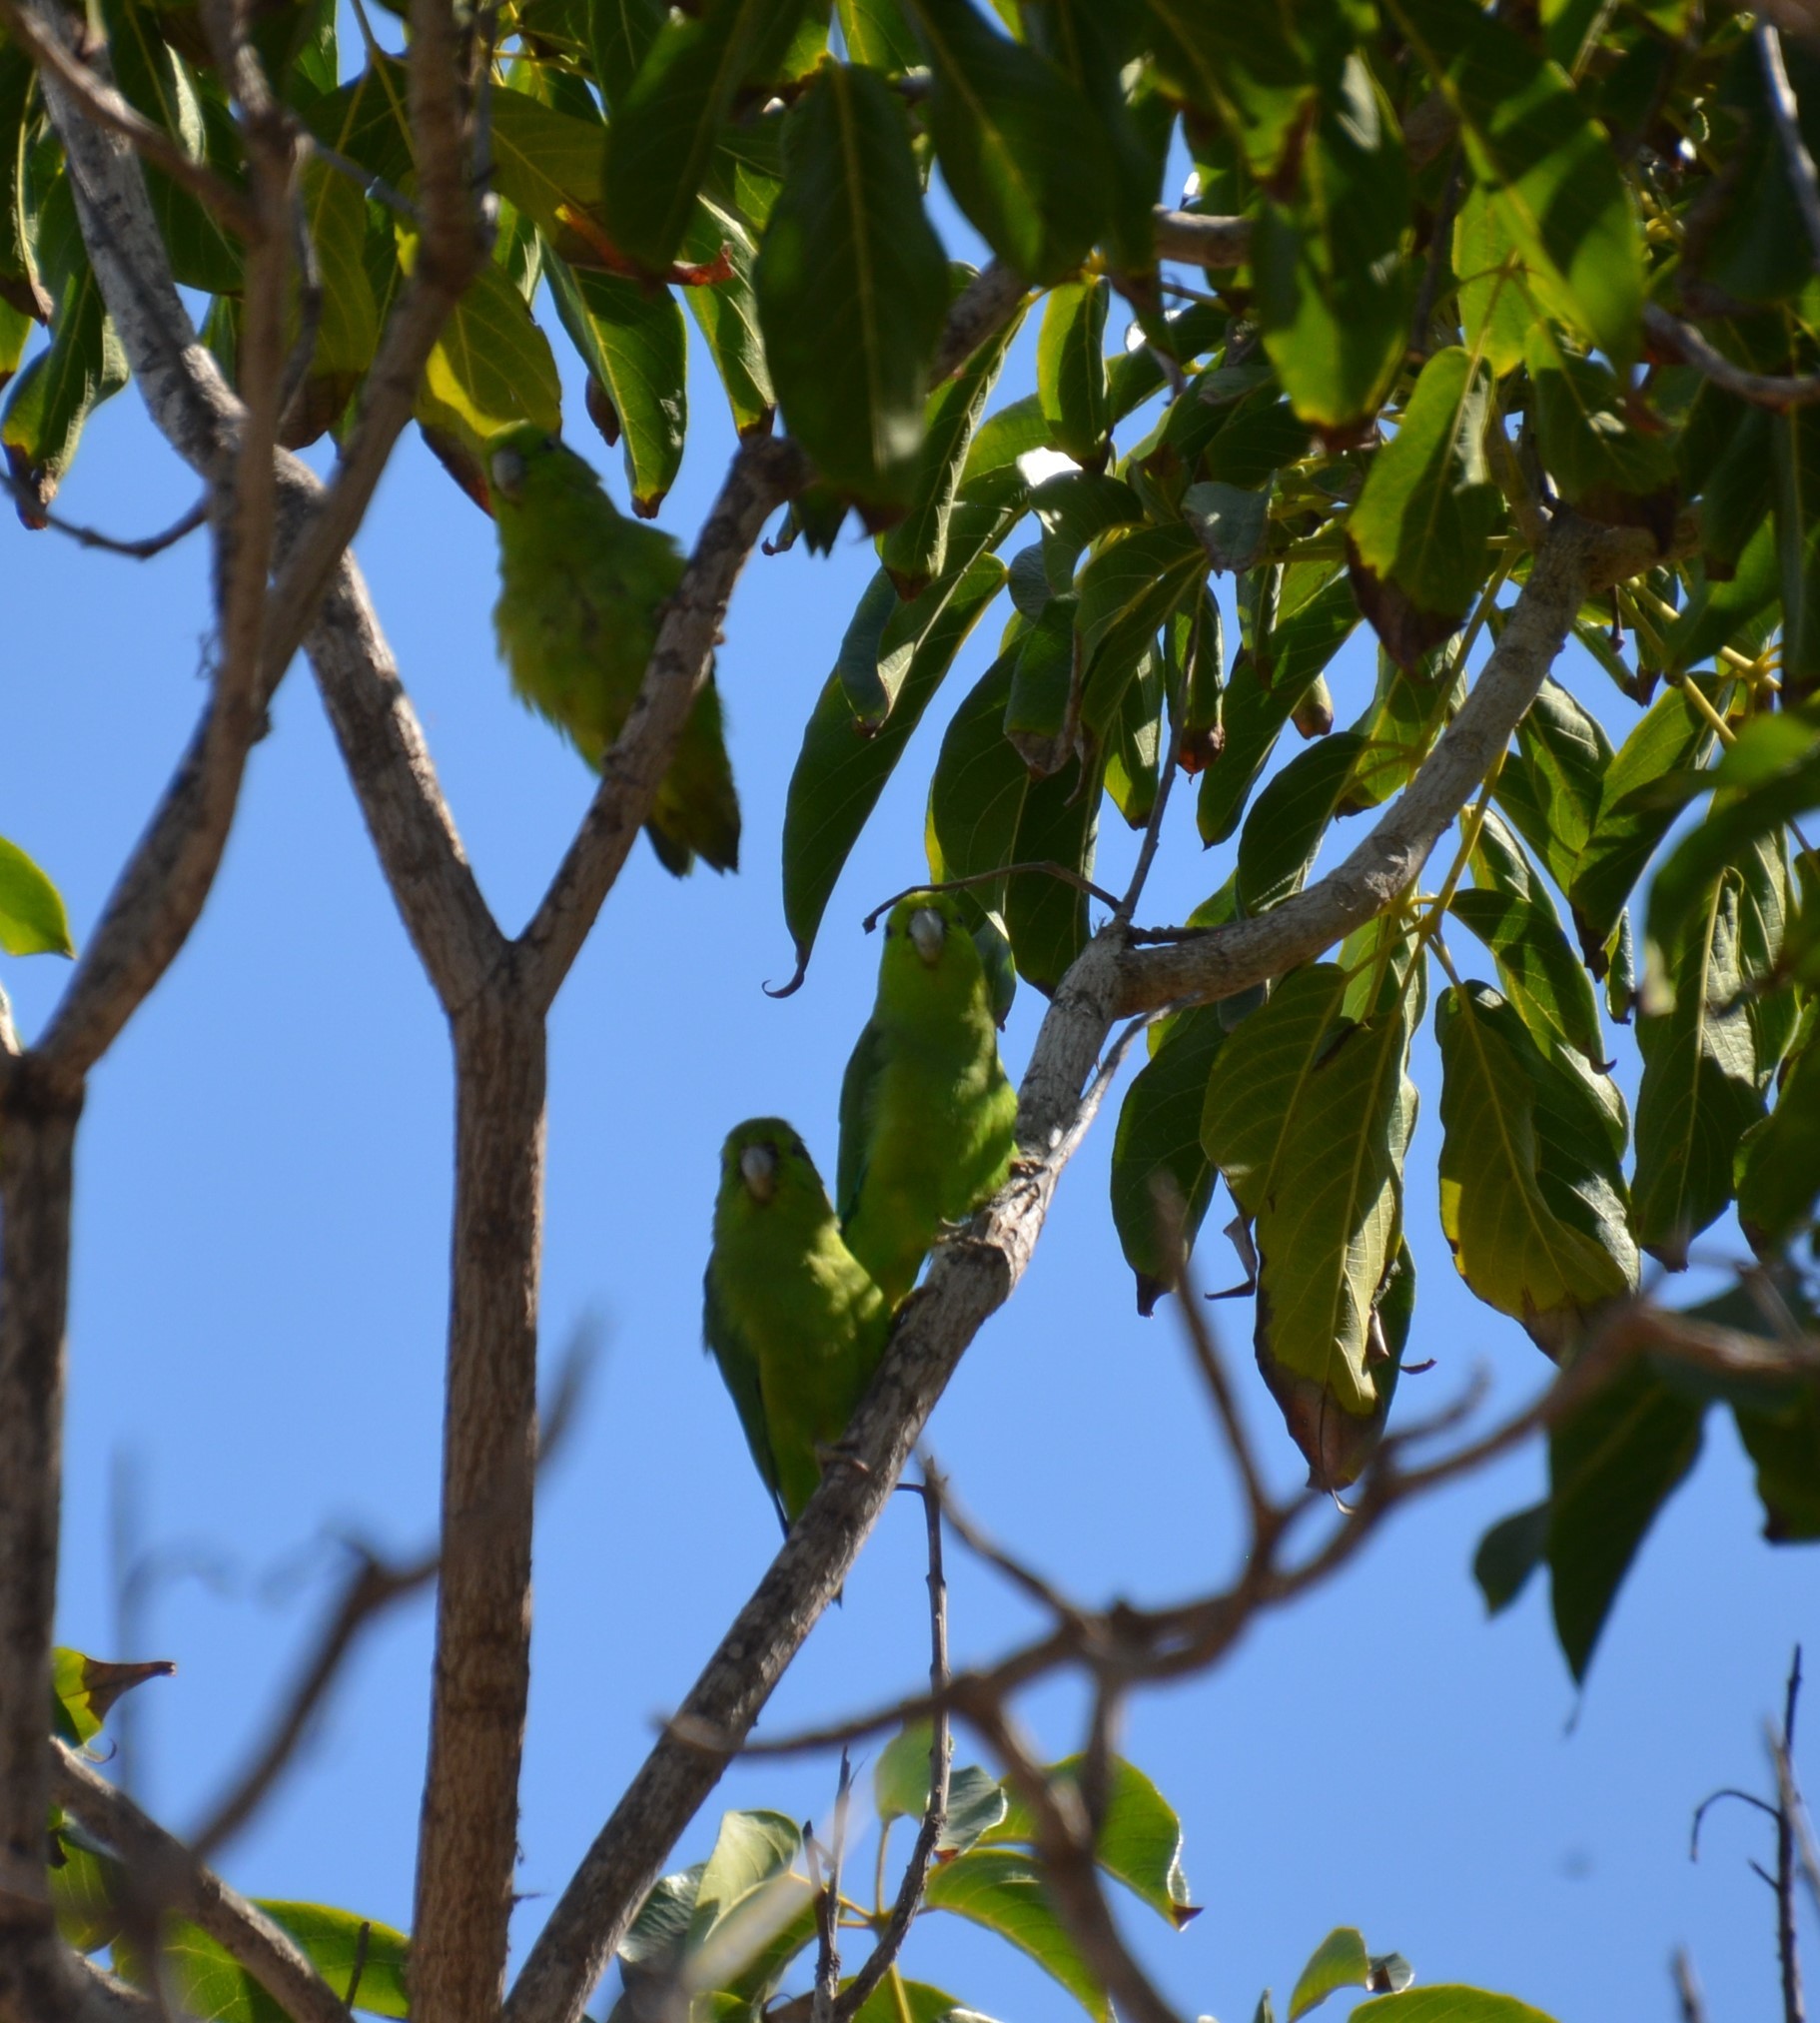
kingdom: Animalia
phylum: Chordata
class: Aves
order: Psittaciformes
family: Psittacidae
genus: Forpus
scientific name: Forpus cyanopygius
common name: Mexican parrotlet
